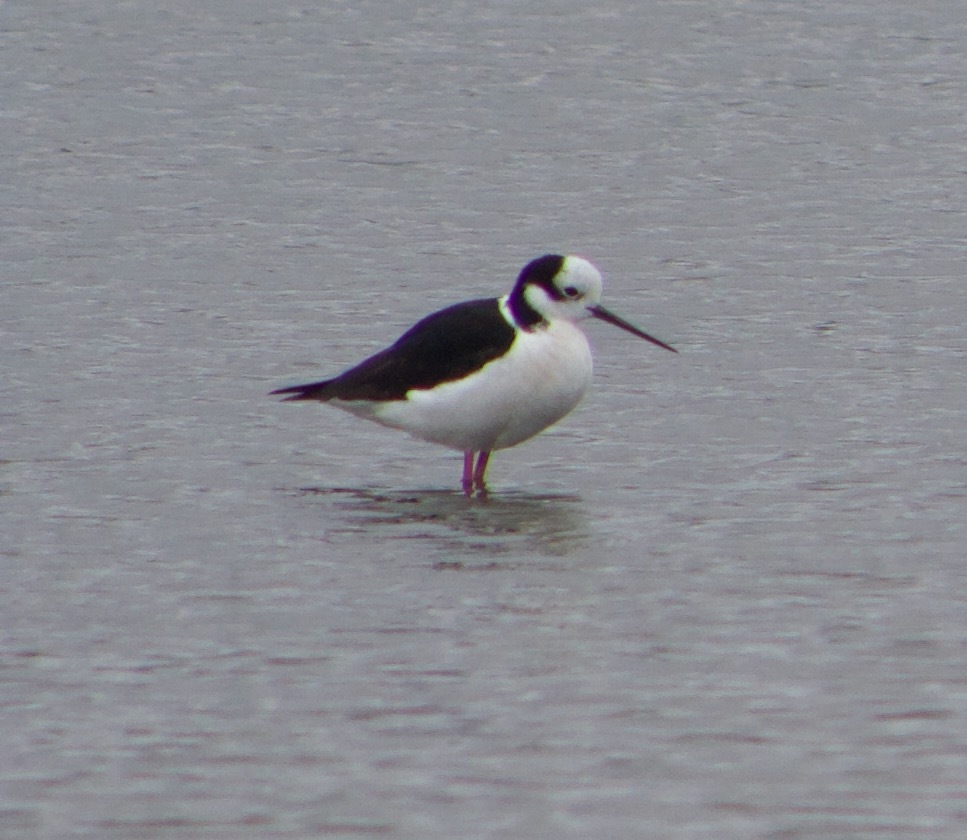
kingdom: Animalia
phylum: Chordata
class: Aves
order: Charadriiformes
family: Recurvirostridae
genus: Himantopus
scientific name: Himantopus mexicanus
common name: Black-necked stilt
